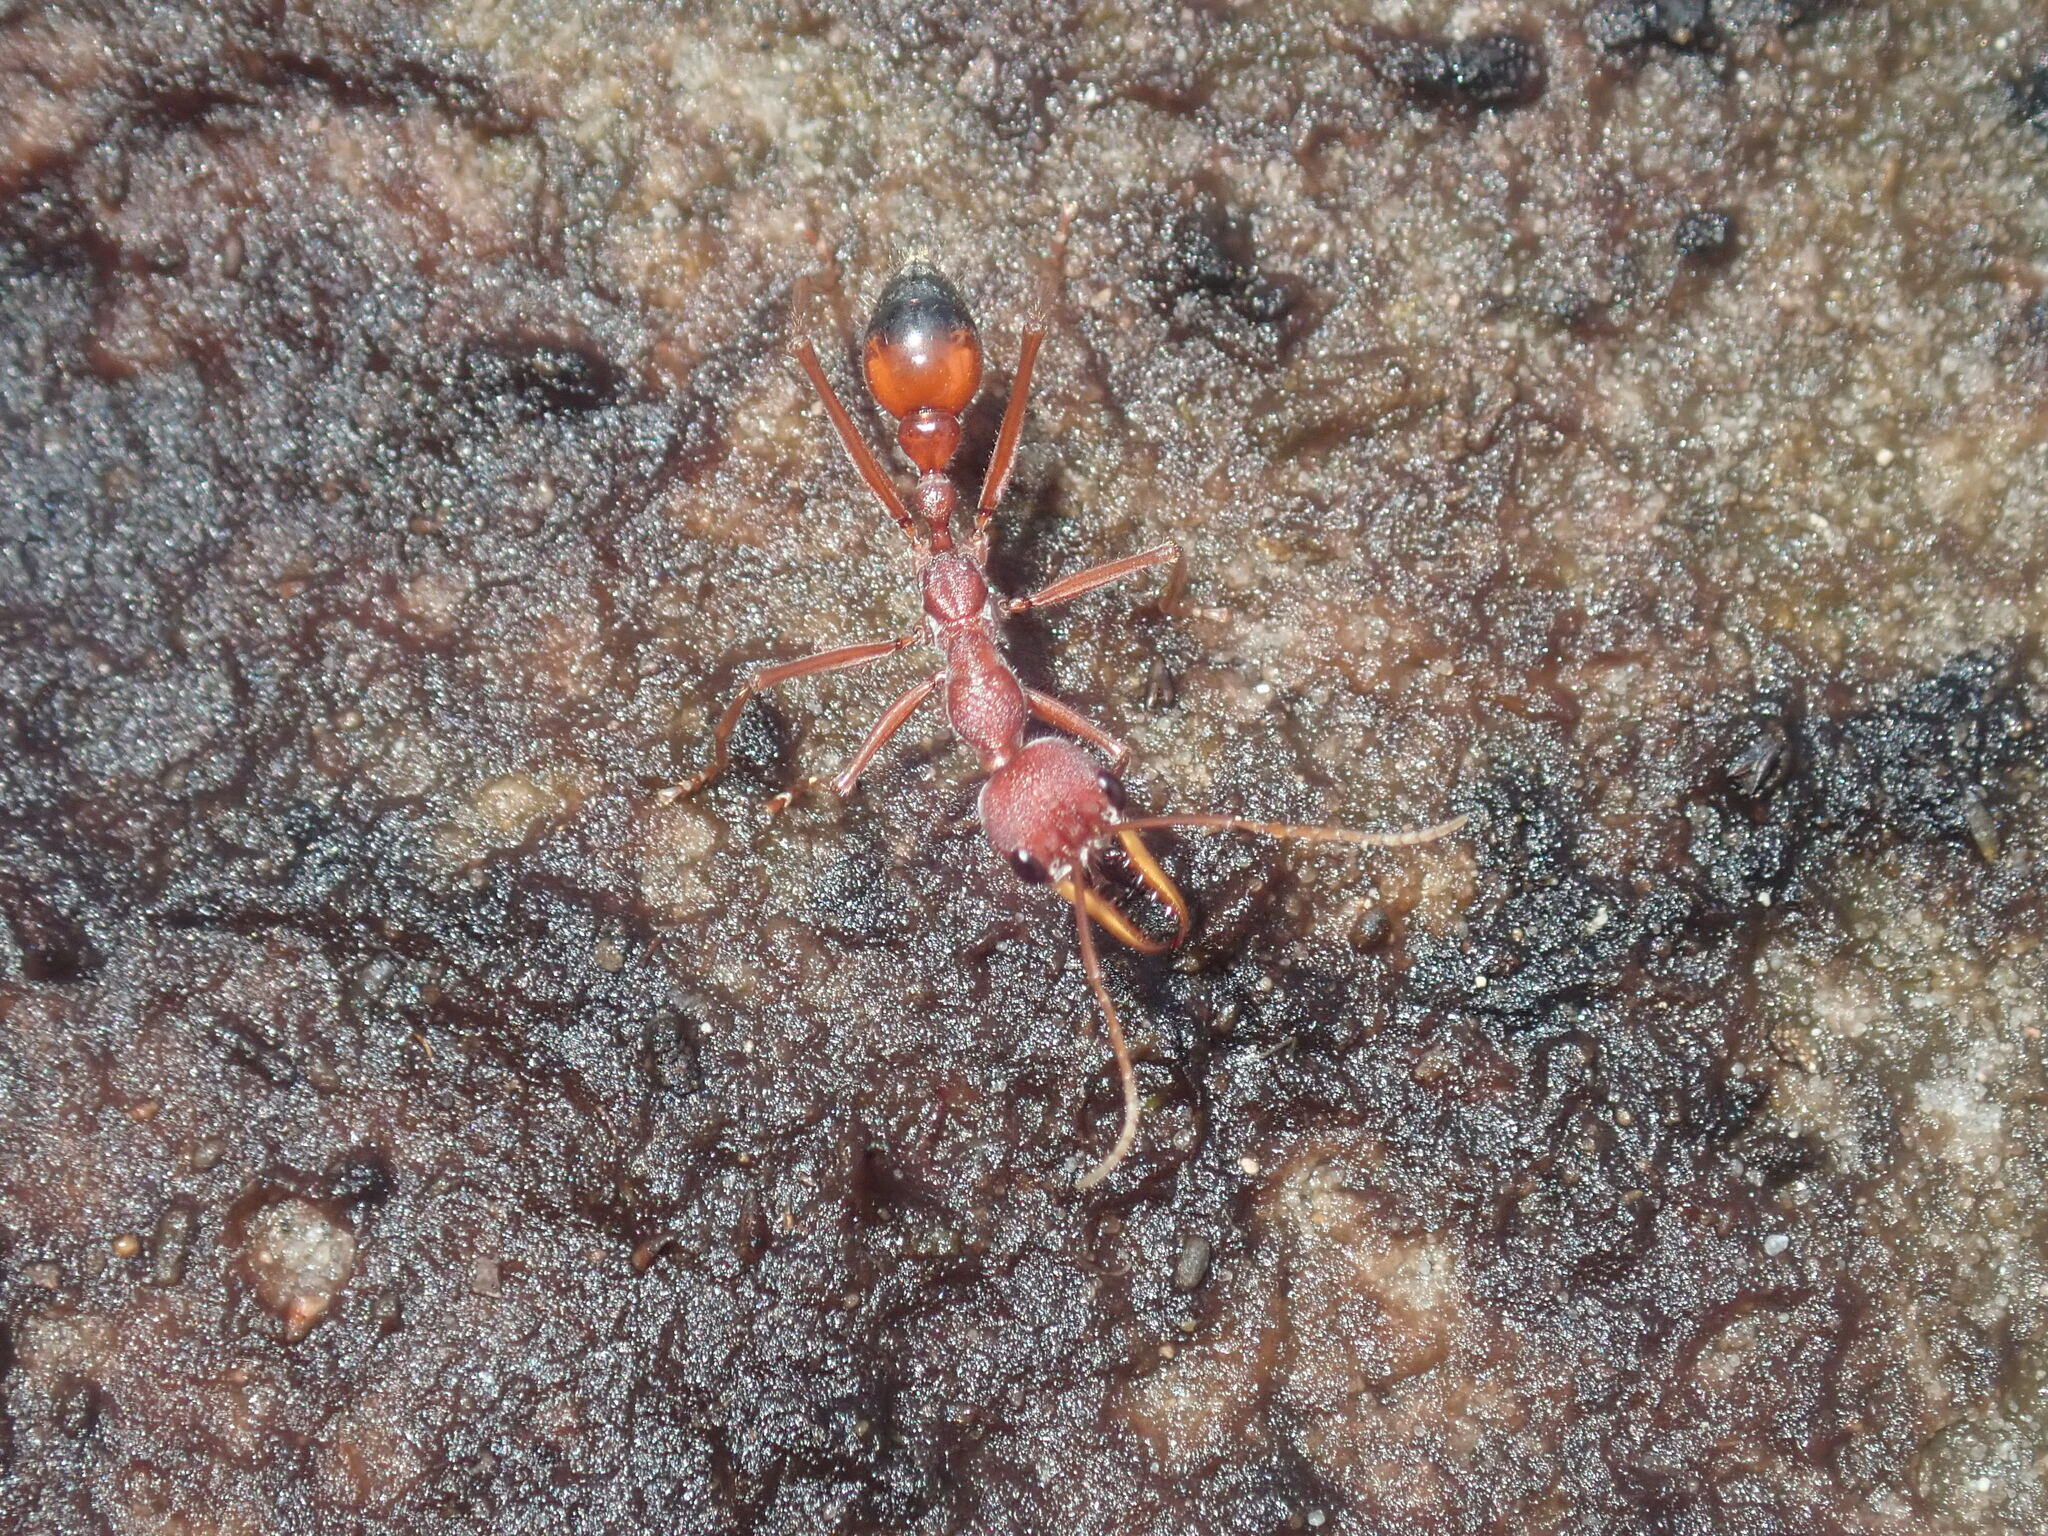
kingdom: Animalia
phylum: Arthropoda
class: Insecta
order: Hymenoptera
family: Formicidae
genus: Myrmecia
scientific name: Myrmecia gulosa
